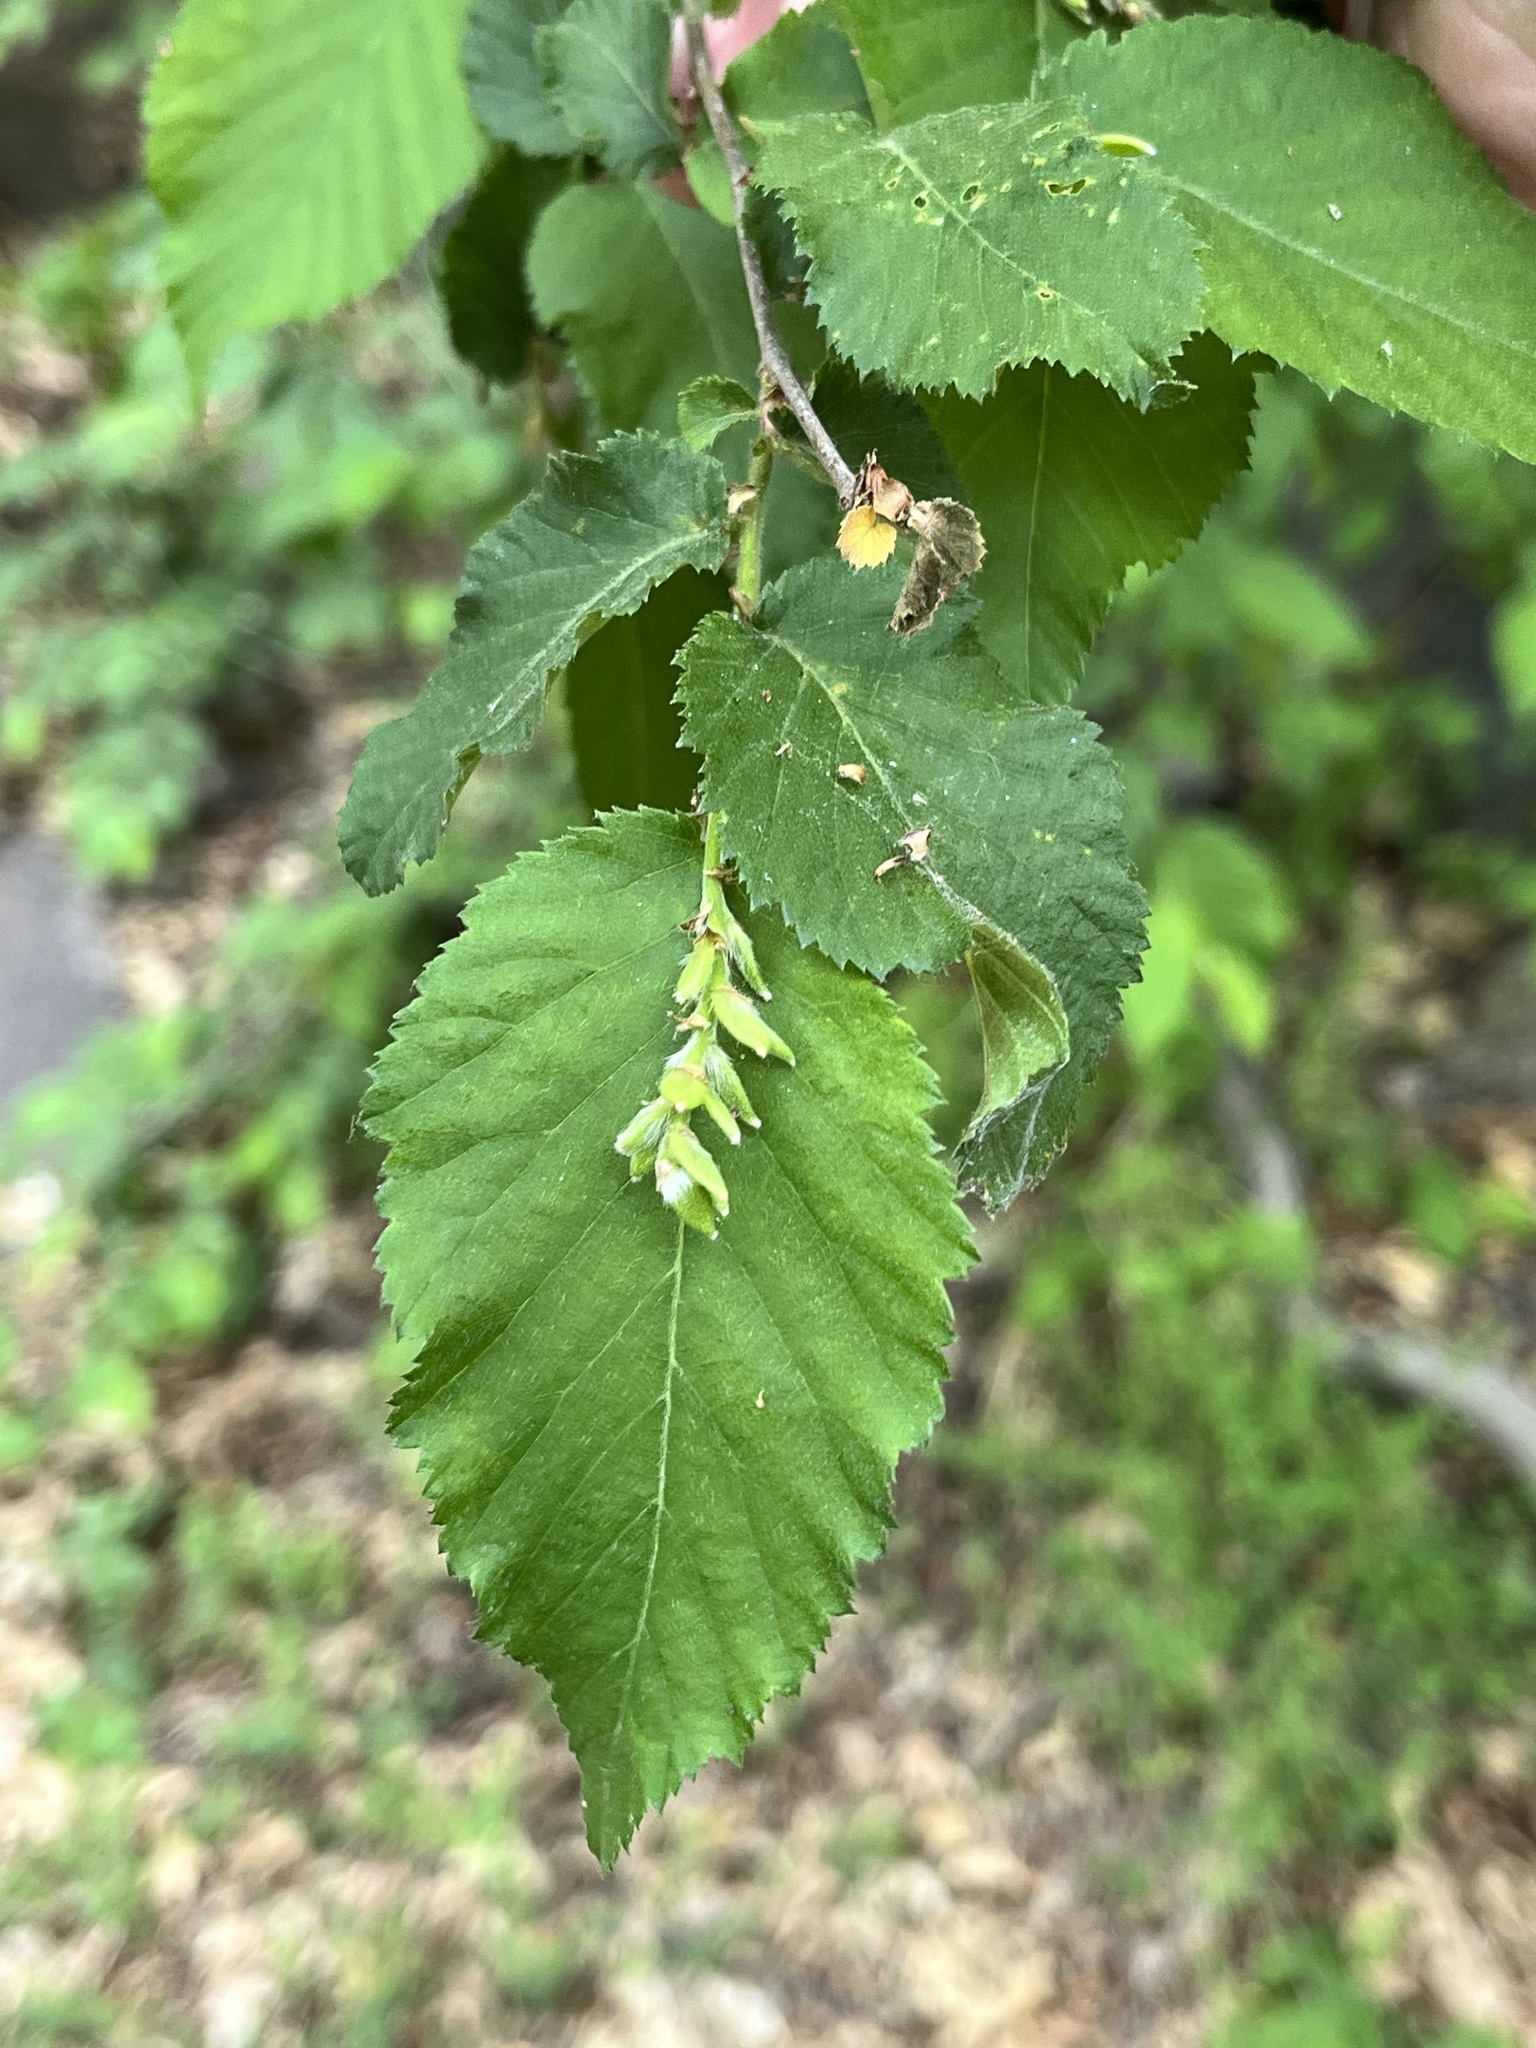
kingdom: Plantae
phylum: Tracheophyta
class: Magnoliopsida
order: Fagales
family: Betulaceae
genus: Ostrya
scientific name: Ostrya knowltonii
